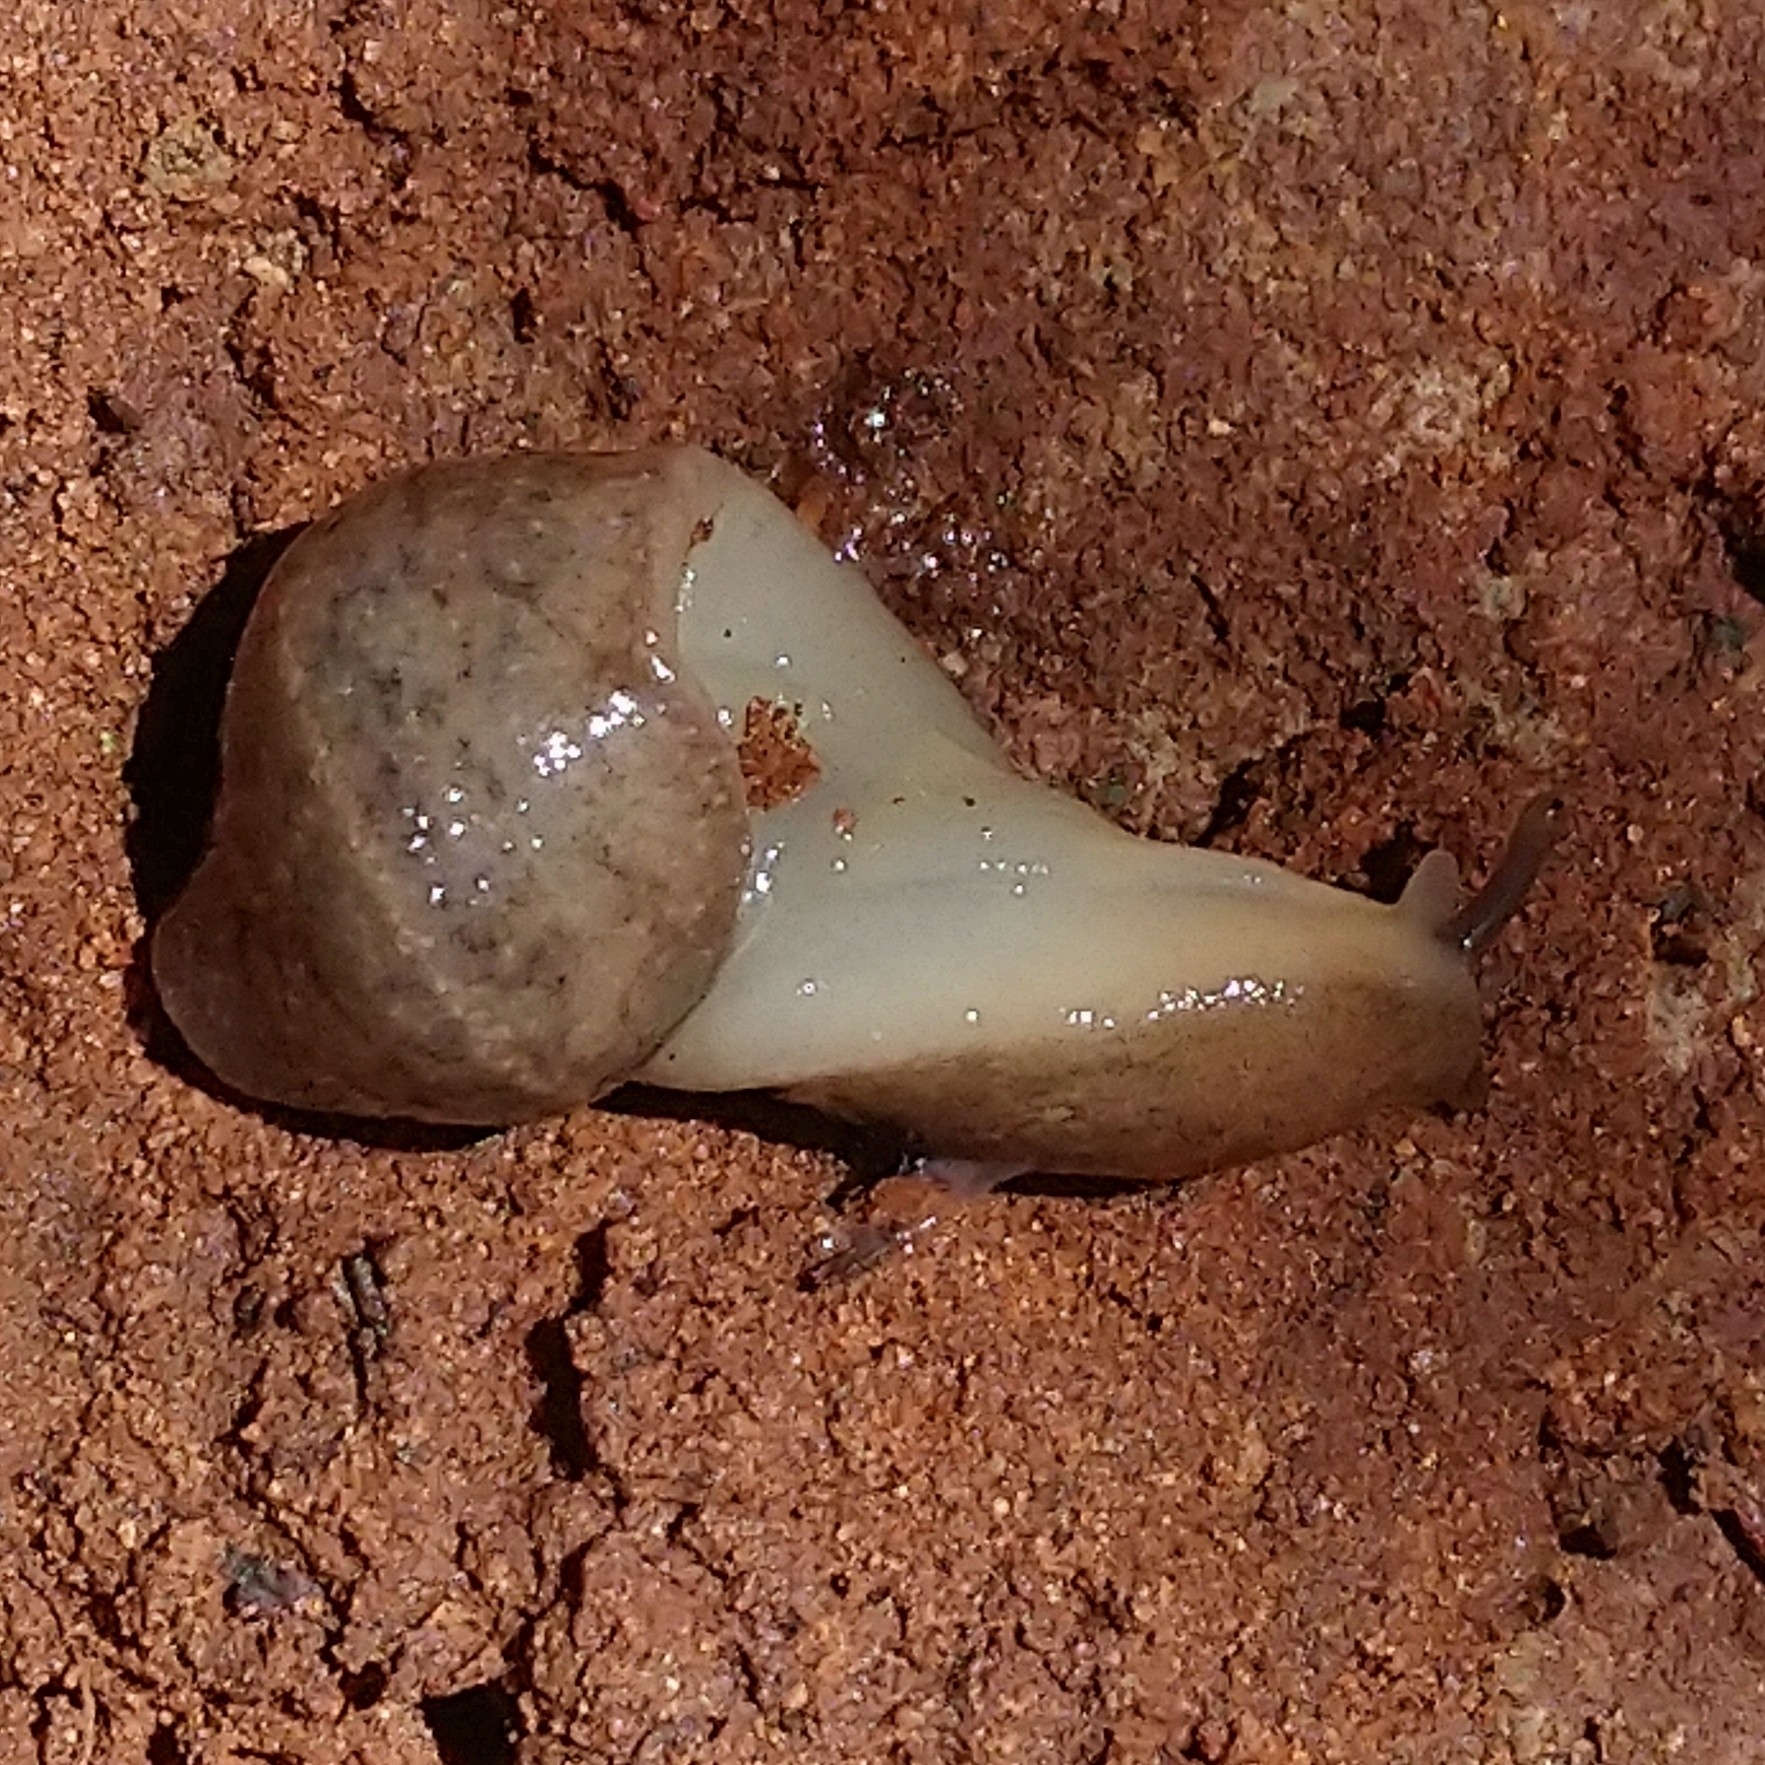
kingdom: Animalia
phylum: Mollusca
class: Gastropoda
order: Systellommatophora
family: Veronicellidae
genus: Laevicaulis
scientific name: Laevicaulis natalensis
